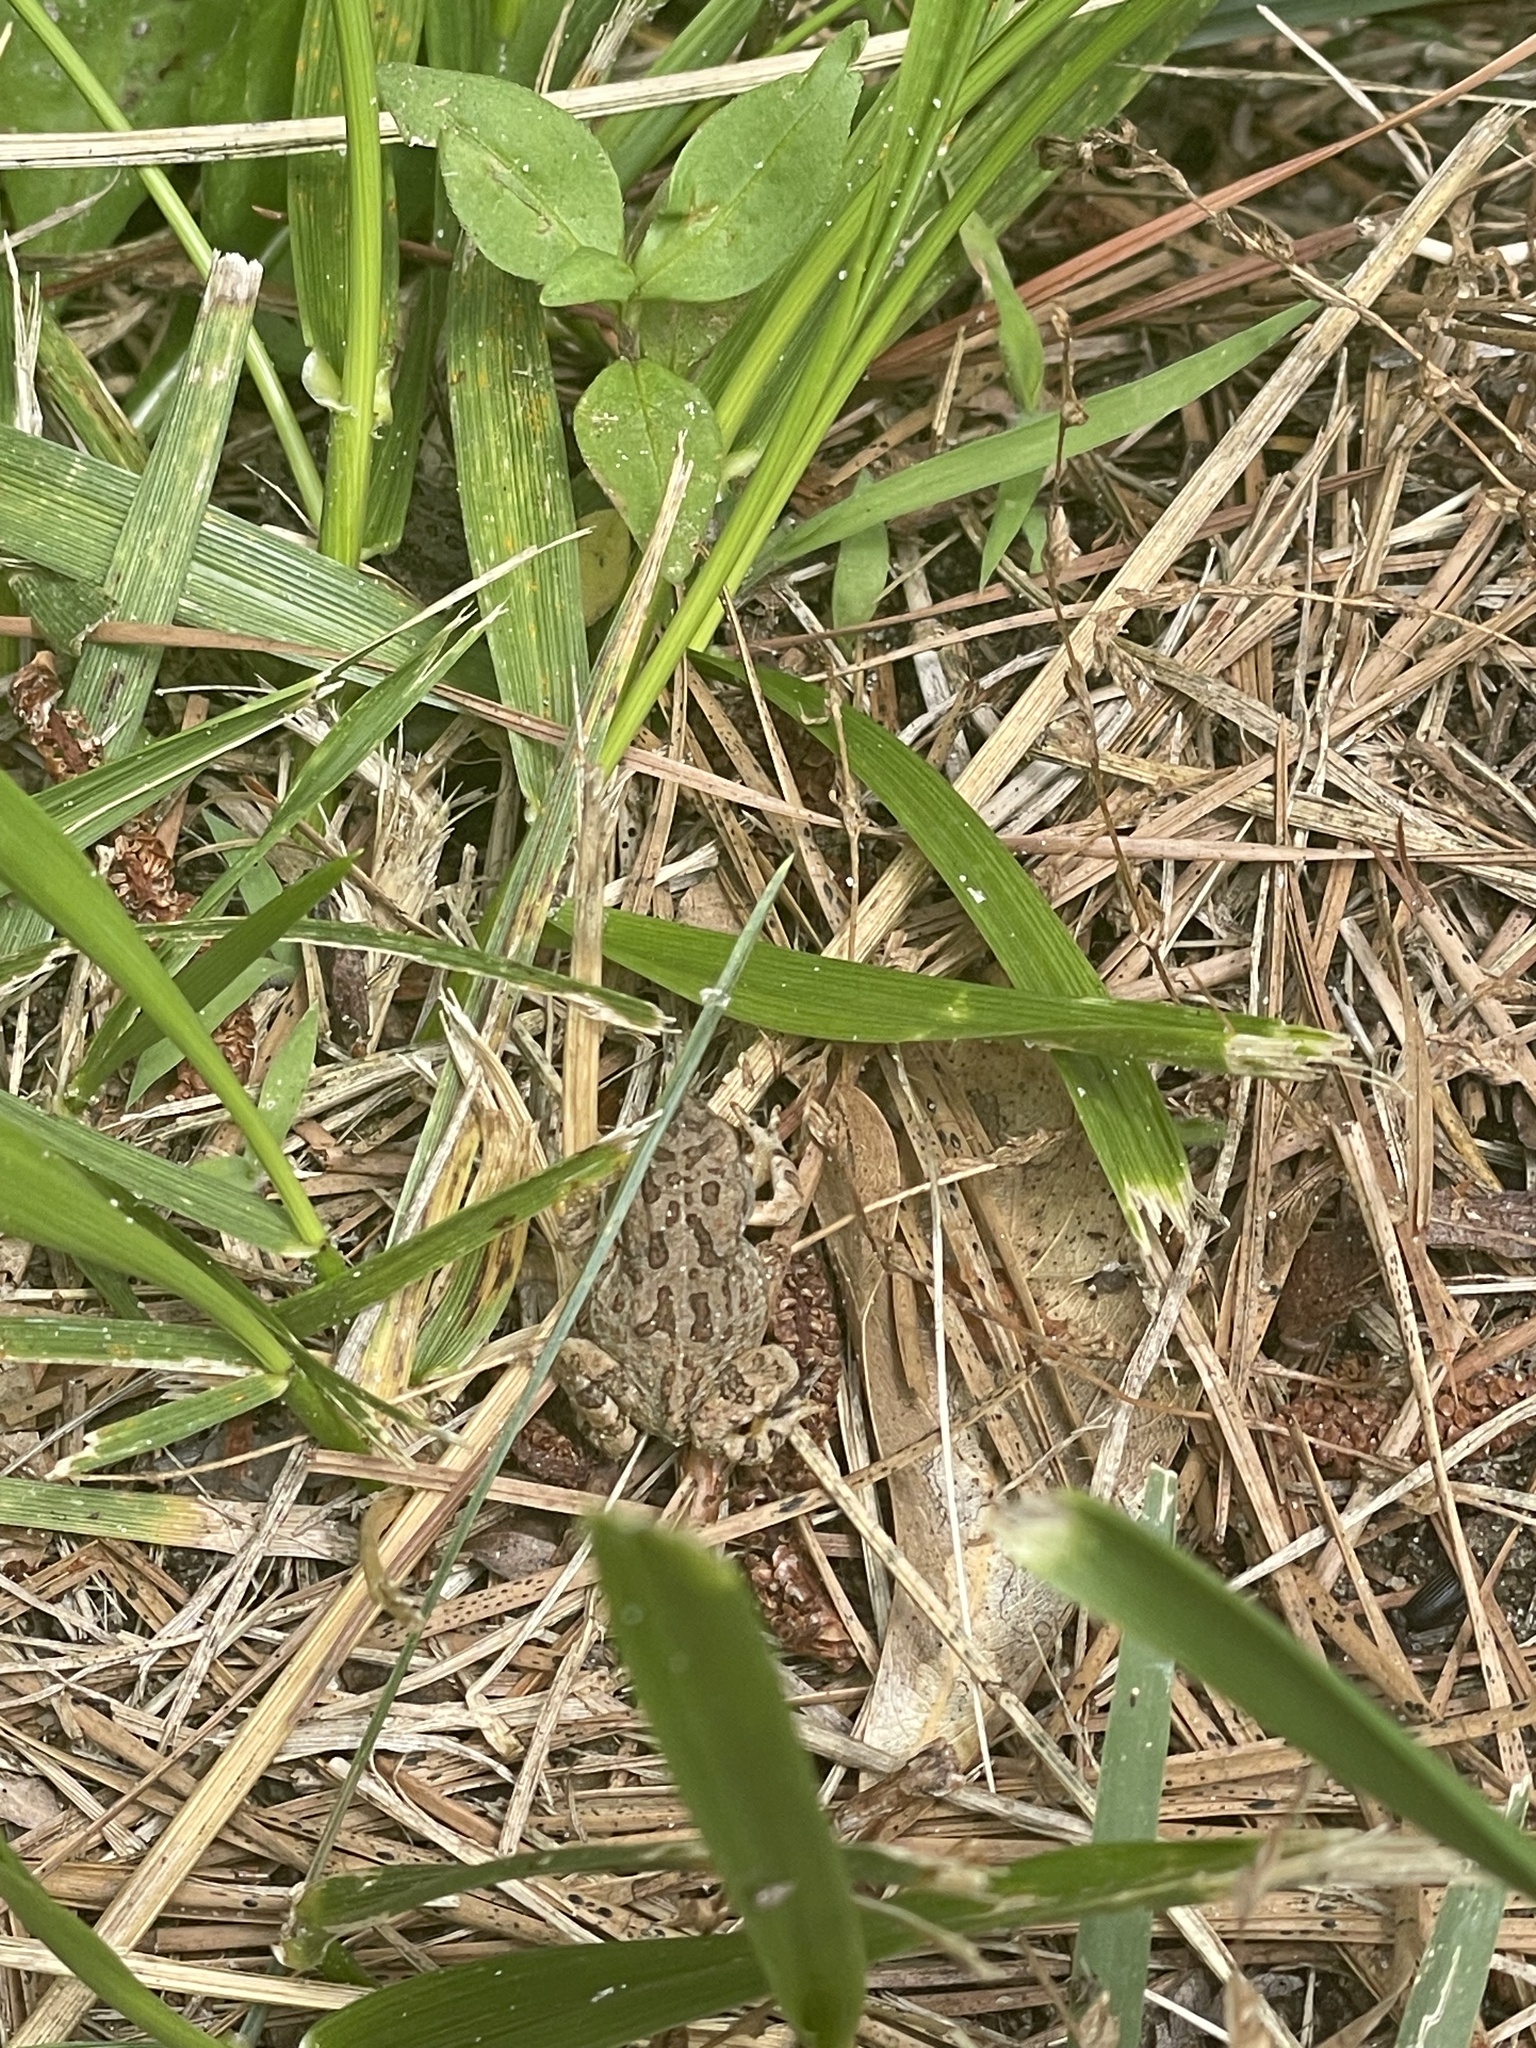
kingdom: Animalia
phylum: Chordata
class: Amphibia
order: Anura
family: Bufonidae
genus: Anaxyrus
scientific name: Anaxyrus fowleri
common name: Fowler's toad
